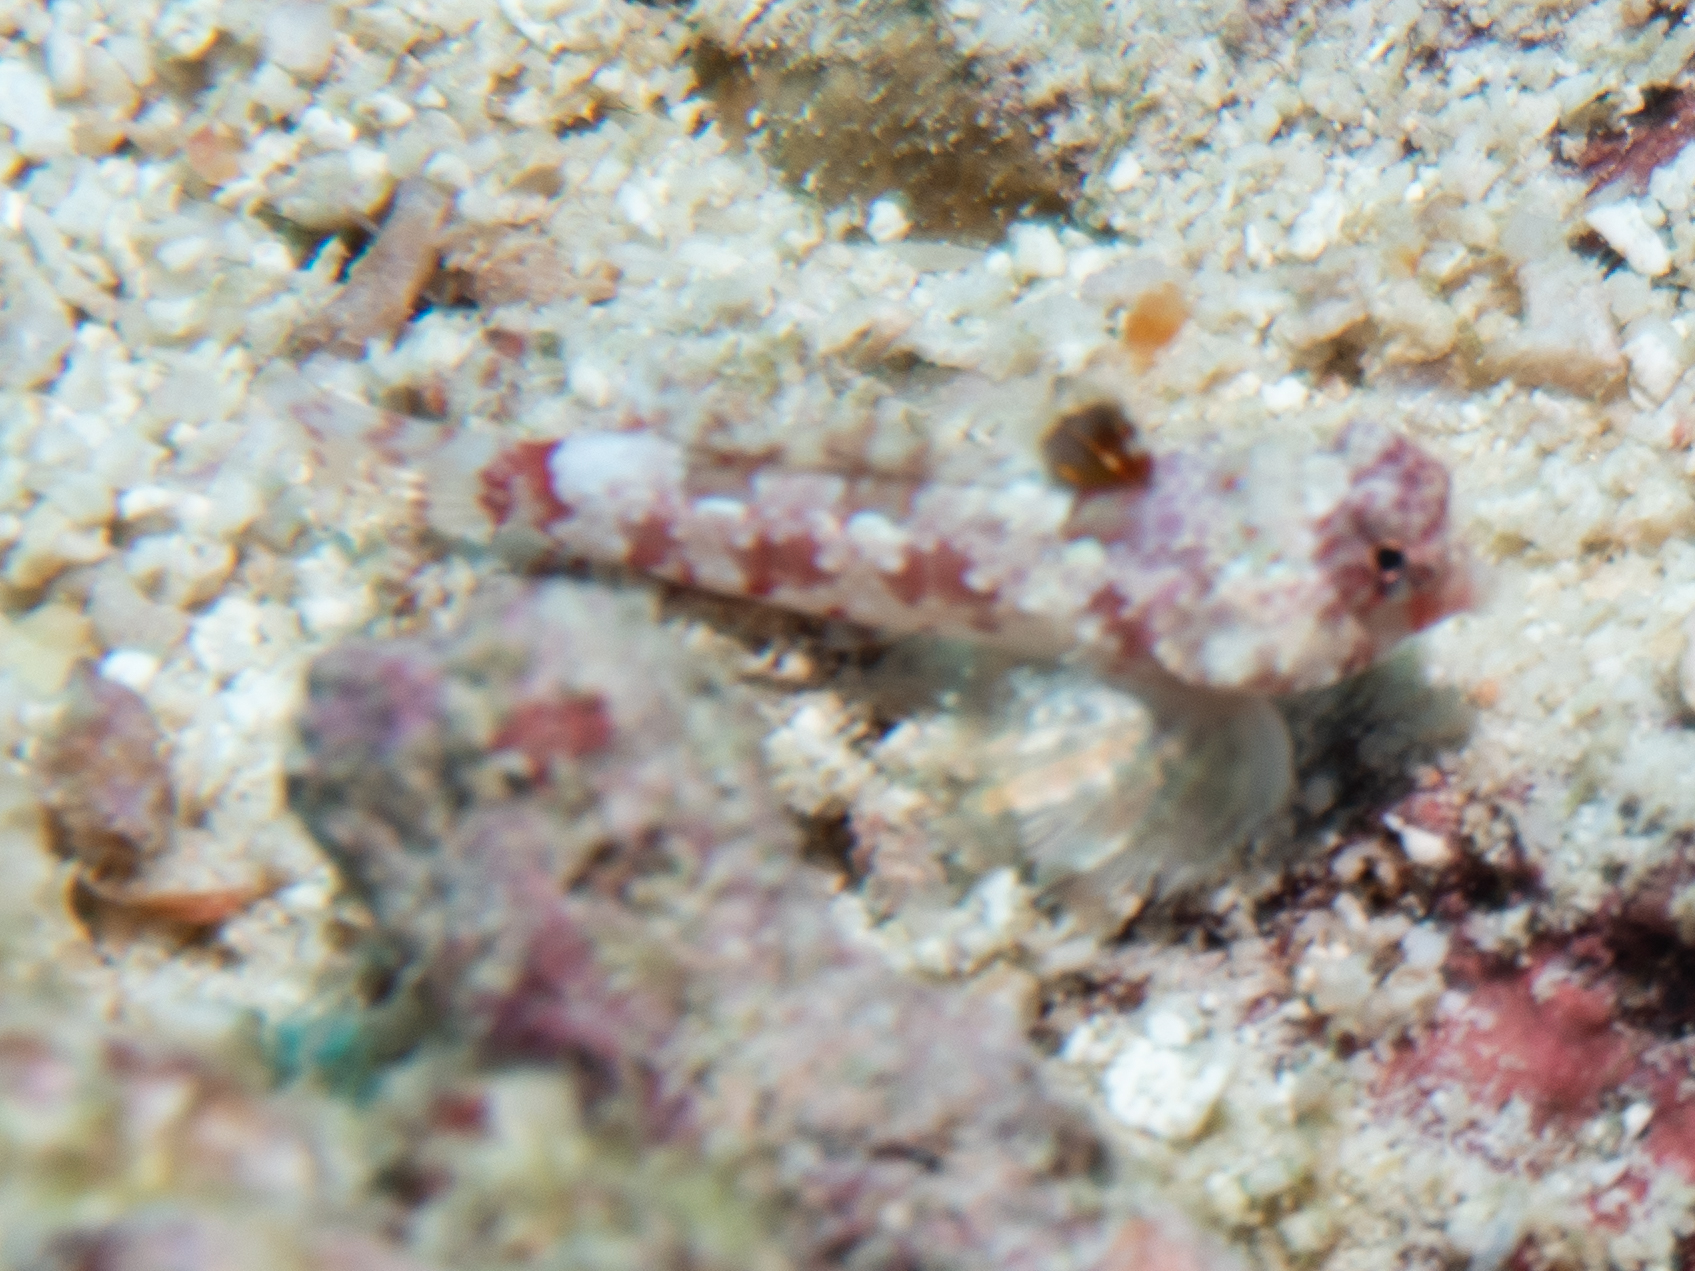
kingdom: Animalia
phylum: Chordata
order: Perciformes
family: Callionymidae
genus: Synchiropus
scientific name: Synchiropus stellatus
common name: Starry dragonet
